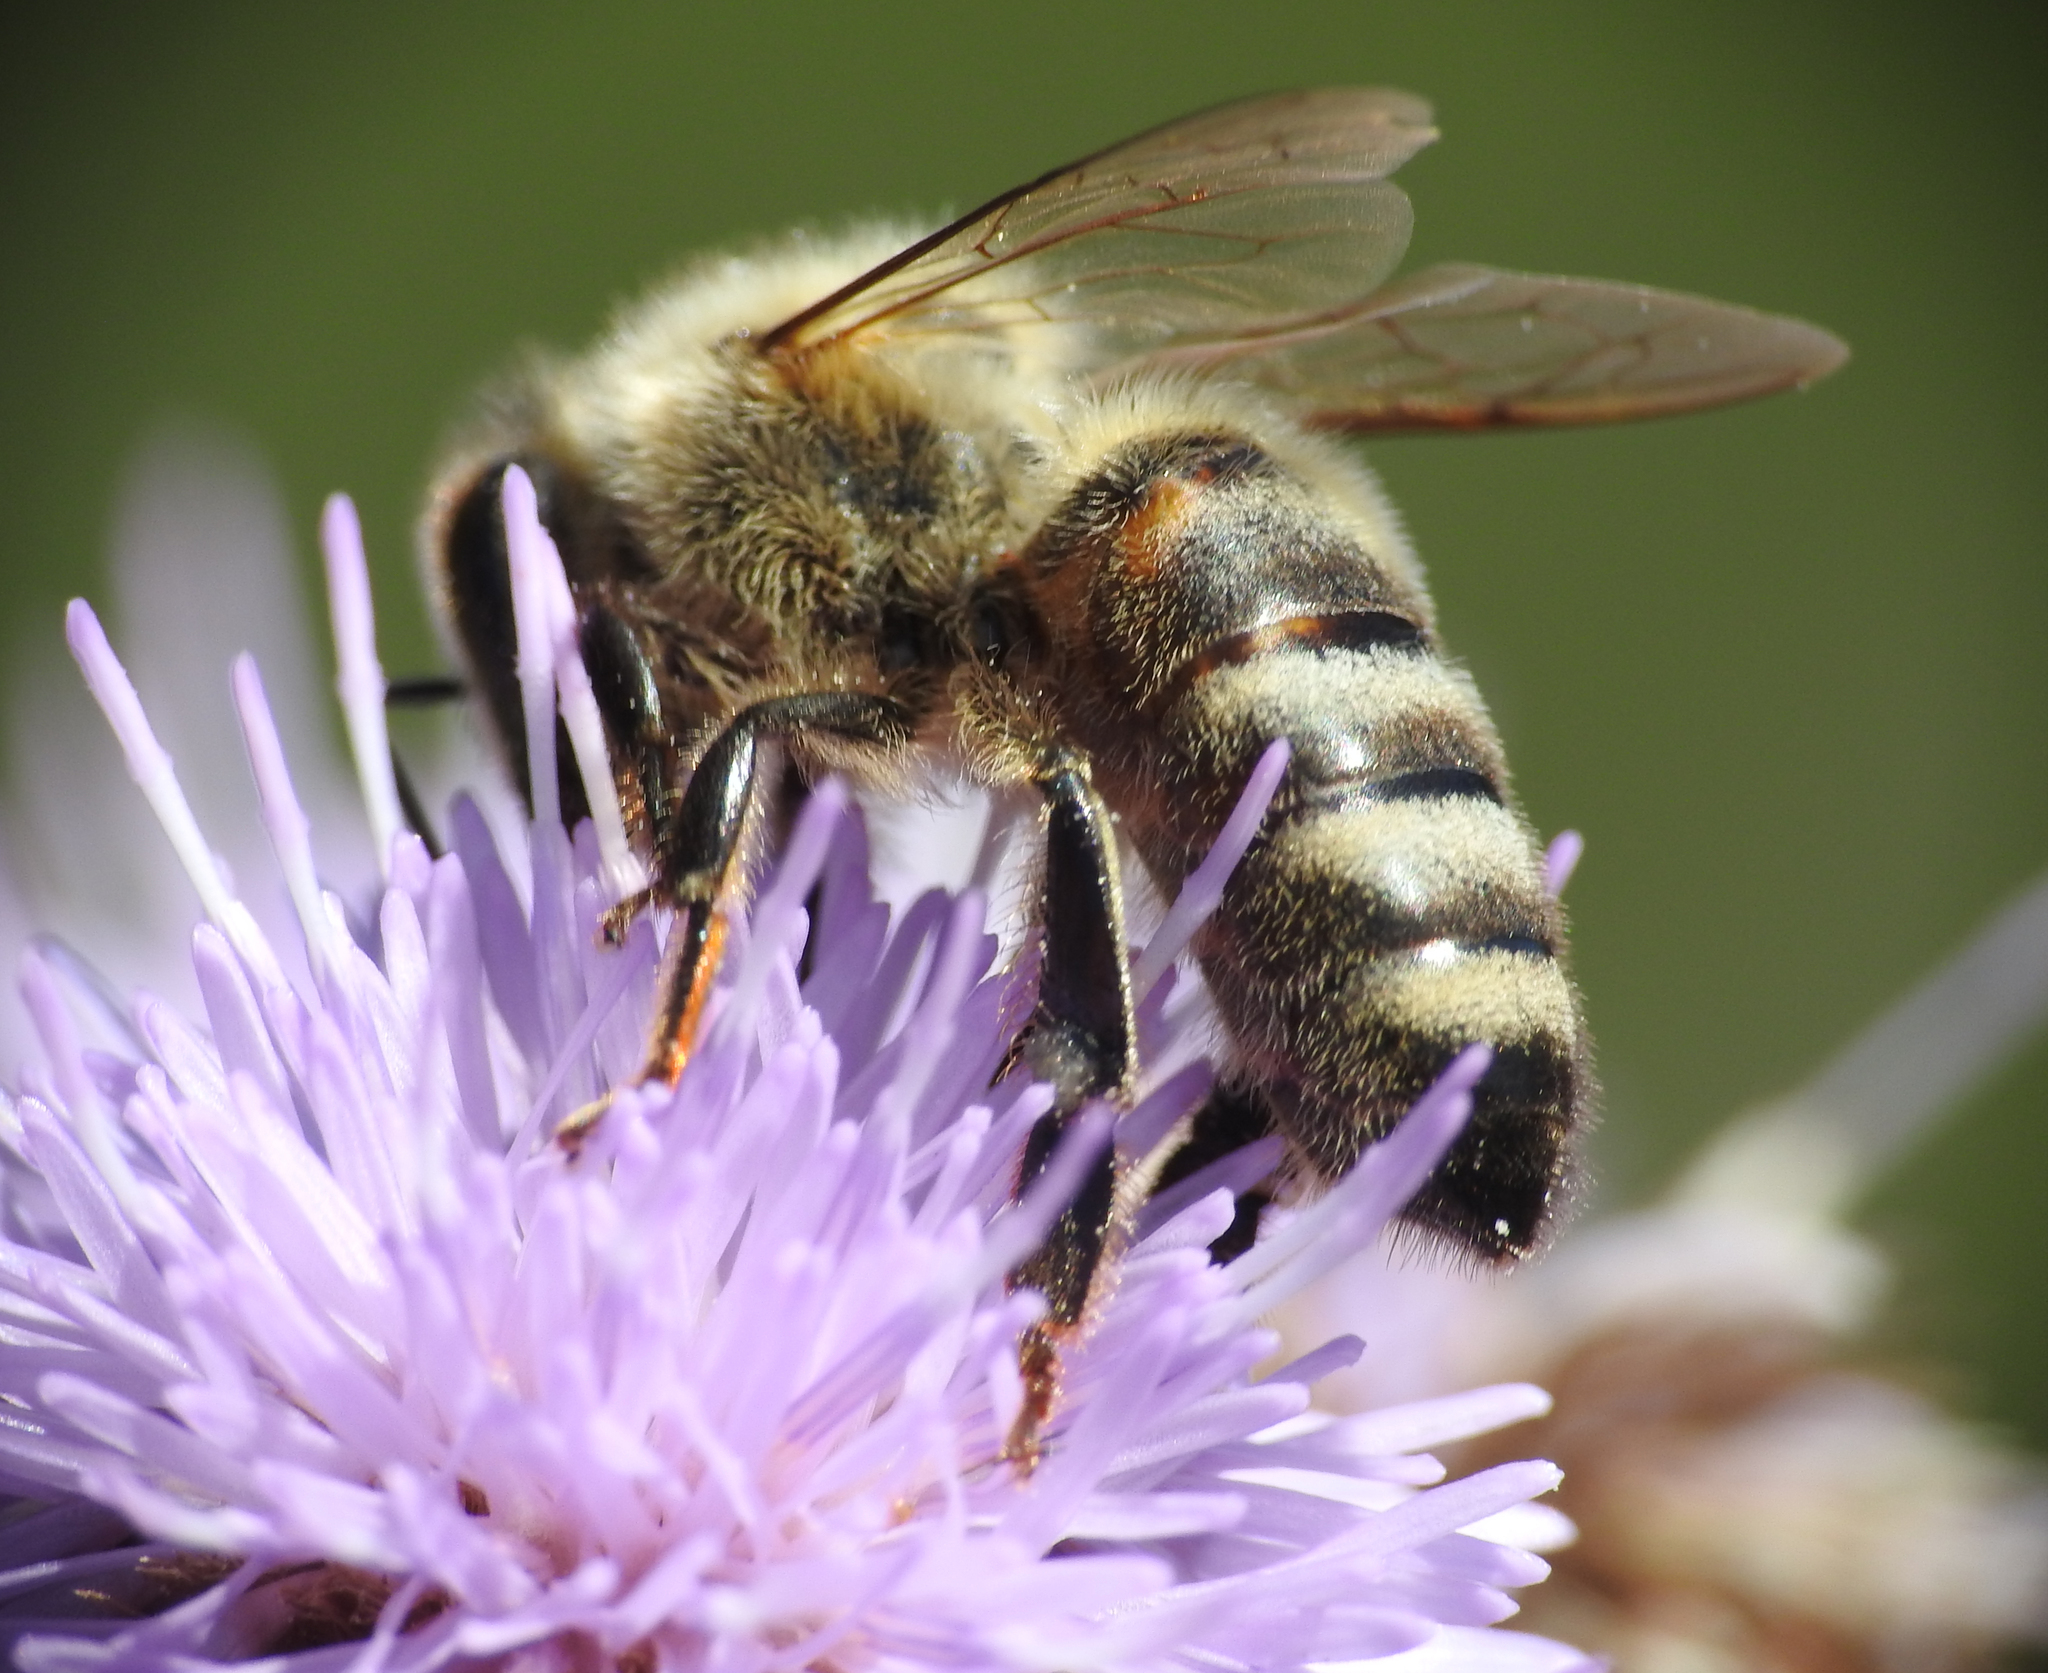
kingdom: Animalia
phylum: Arthropoda
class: Insecta
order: Hymenoptera
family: Apidae
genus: Apis
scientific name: Apis mellifera
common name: Honey bee
